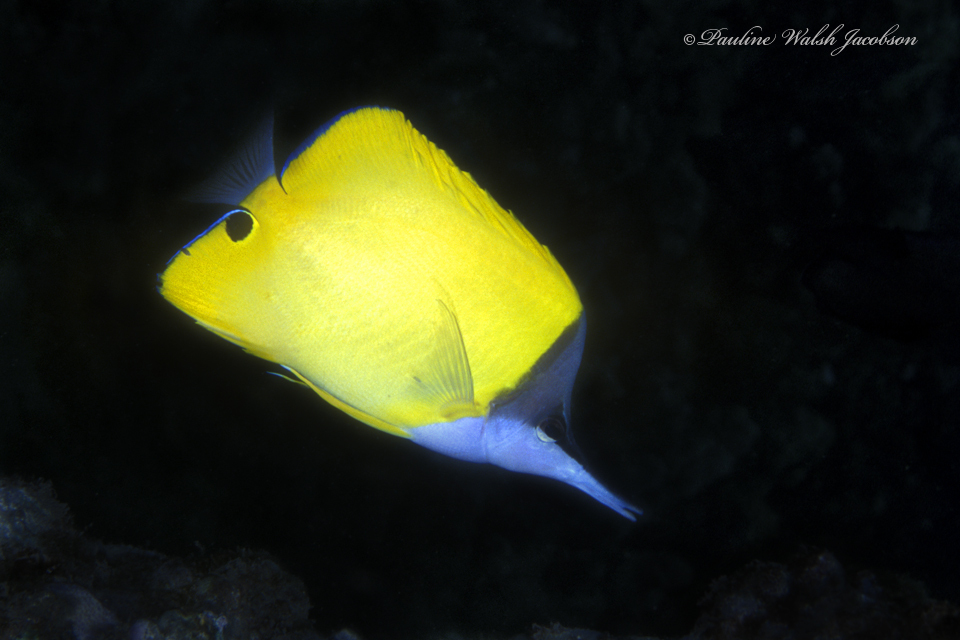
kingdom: Animalia
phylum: Chordata
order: Perciformes
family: Chaetodontidae
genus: Forcipiger
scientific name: Forcipiger flavissimus
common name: Forcepsfish
